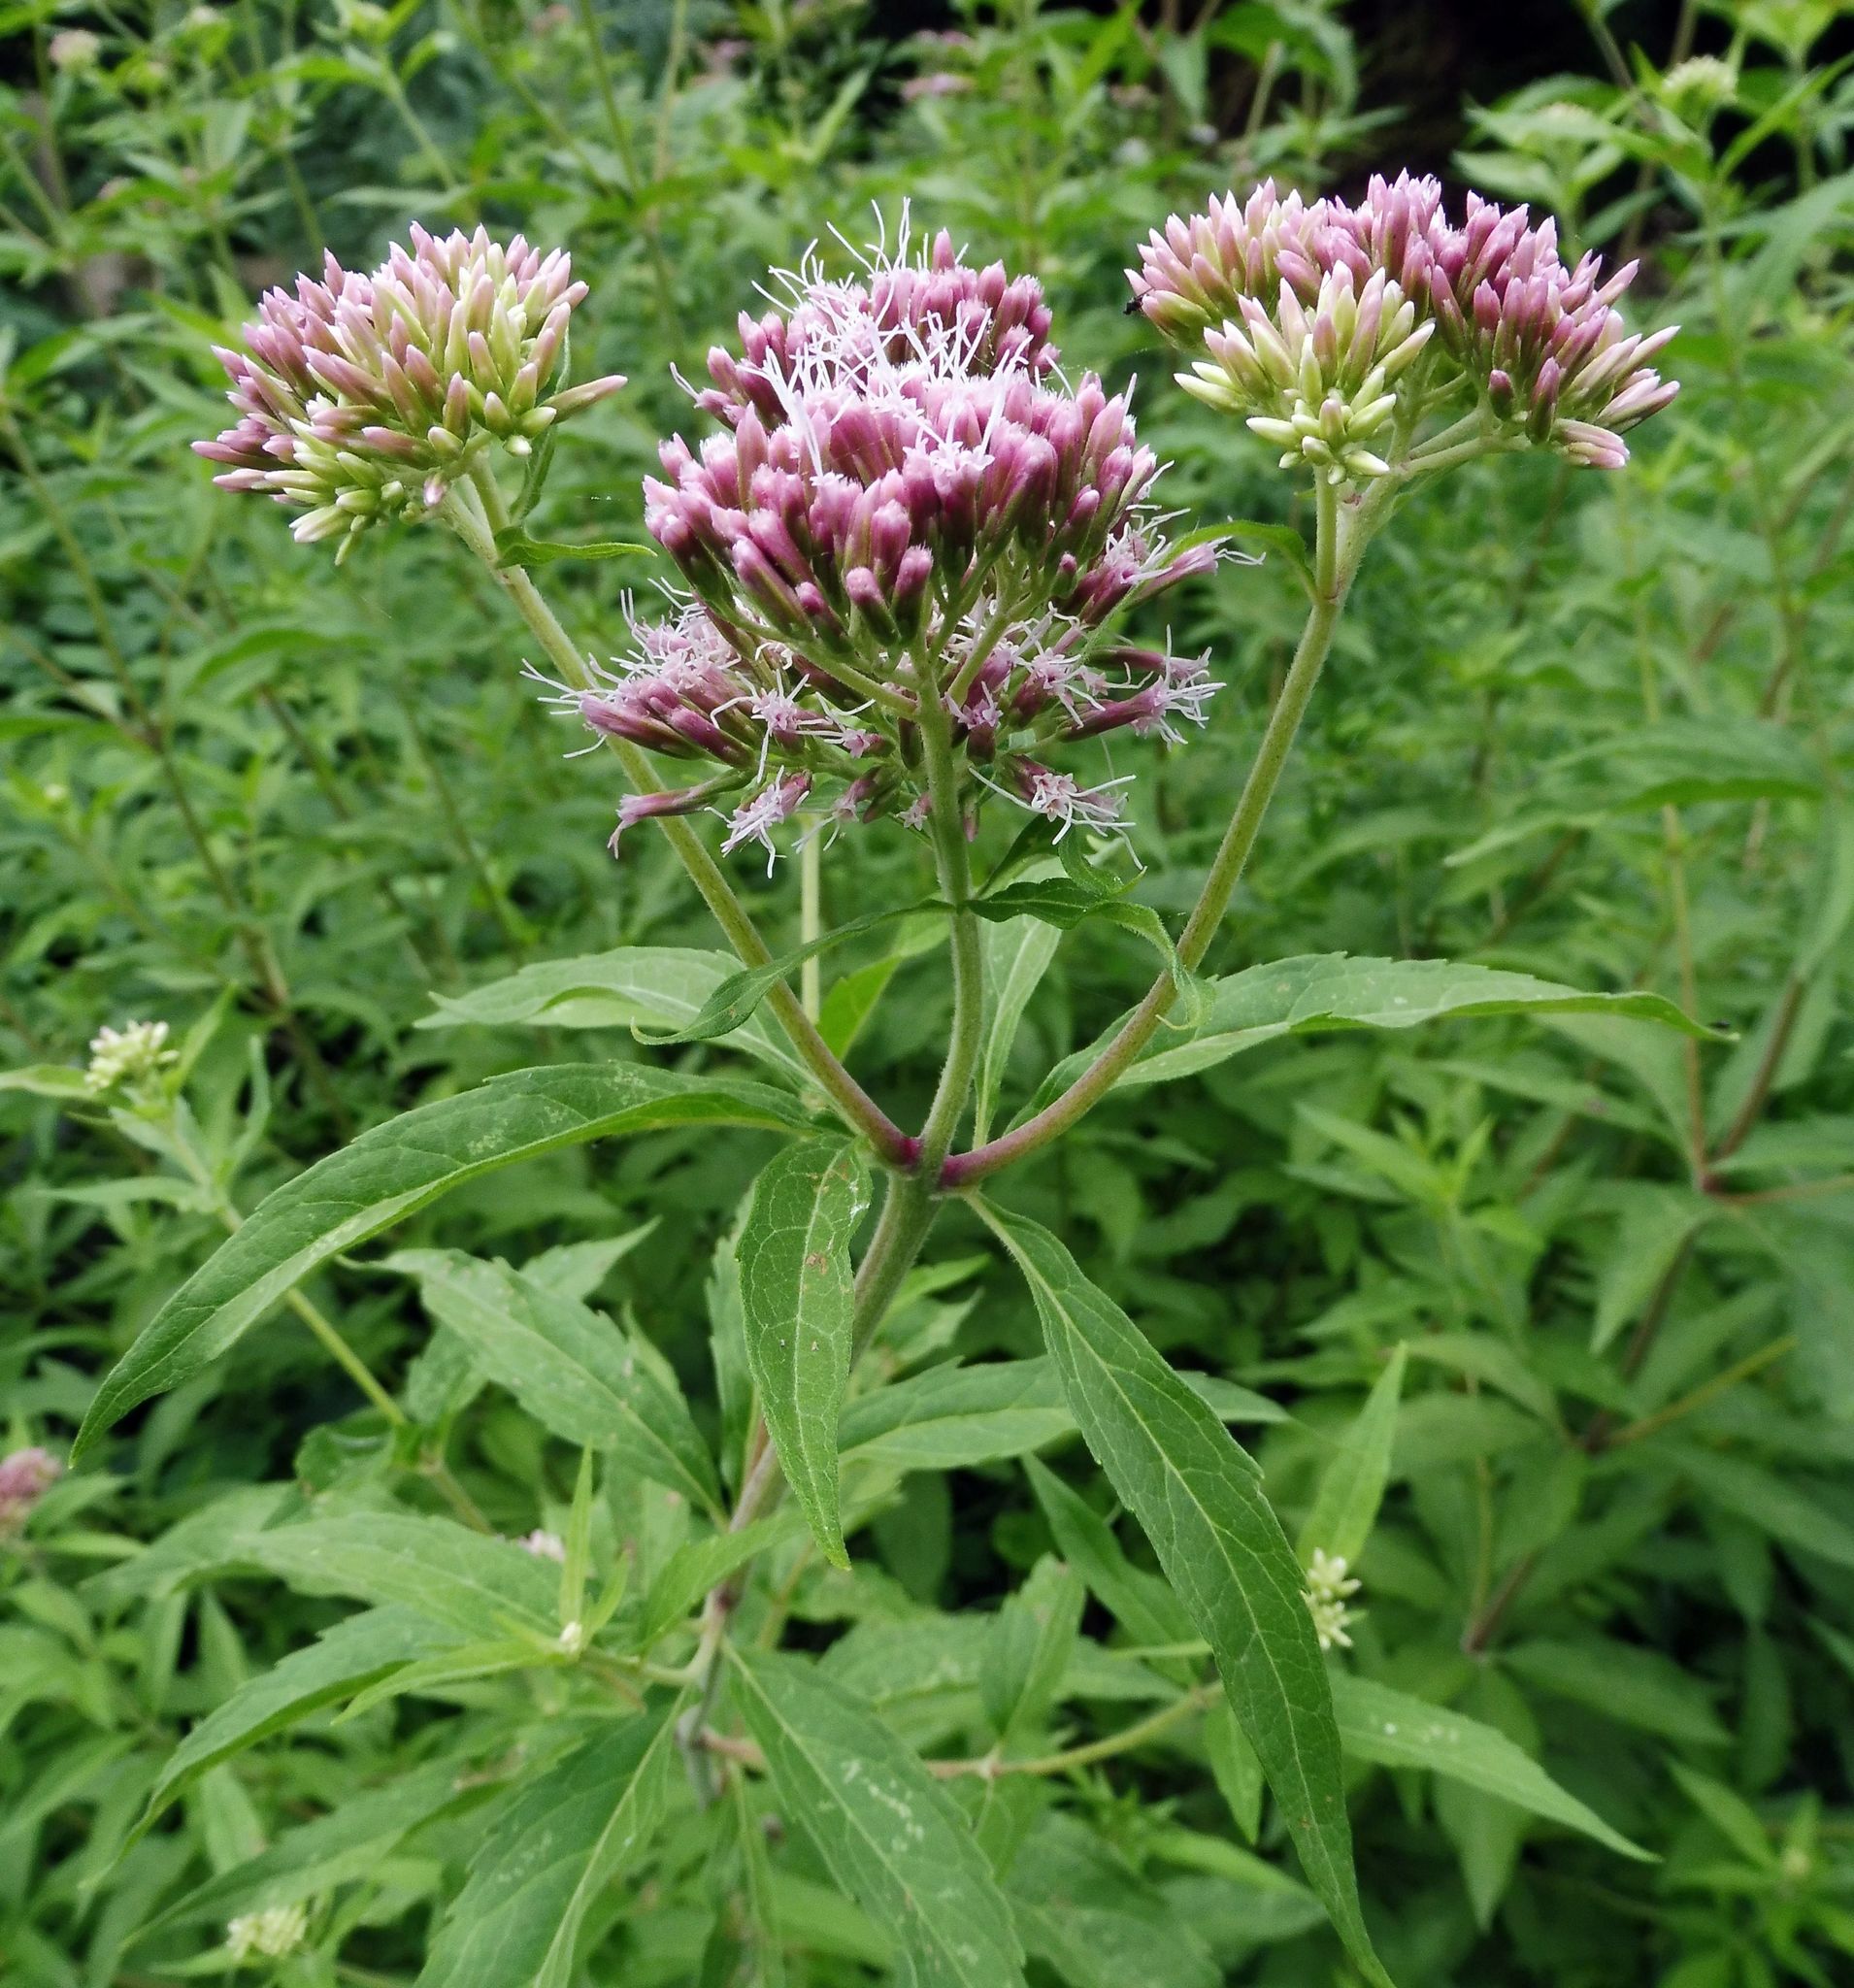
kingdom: Plantae
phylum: Tracheophyta
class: Magnoliopsida
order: Asterales
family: Asteraceae
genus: Eupatorium
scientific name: Eupatorium cannabinum
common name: Hemp-agrimony
